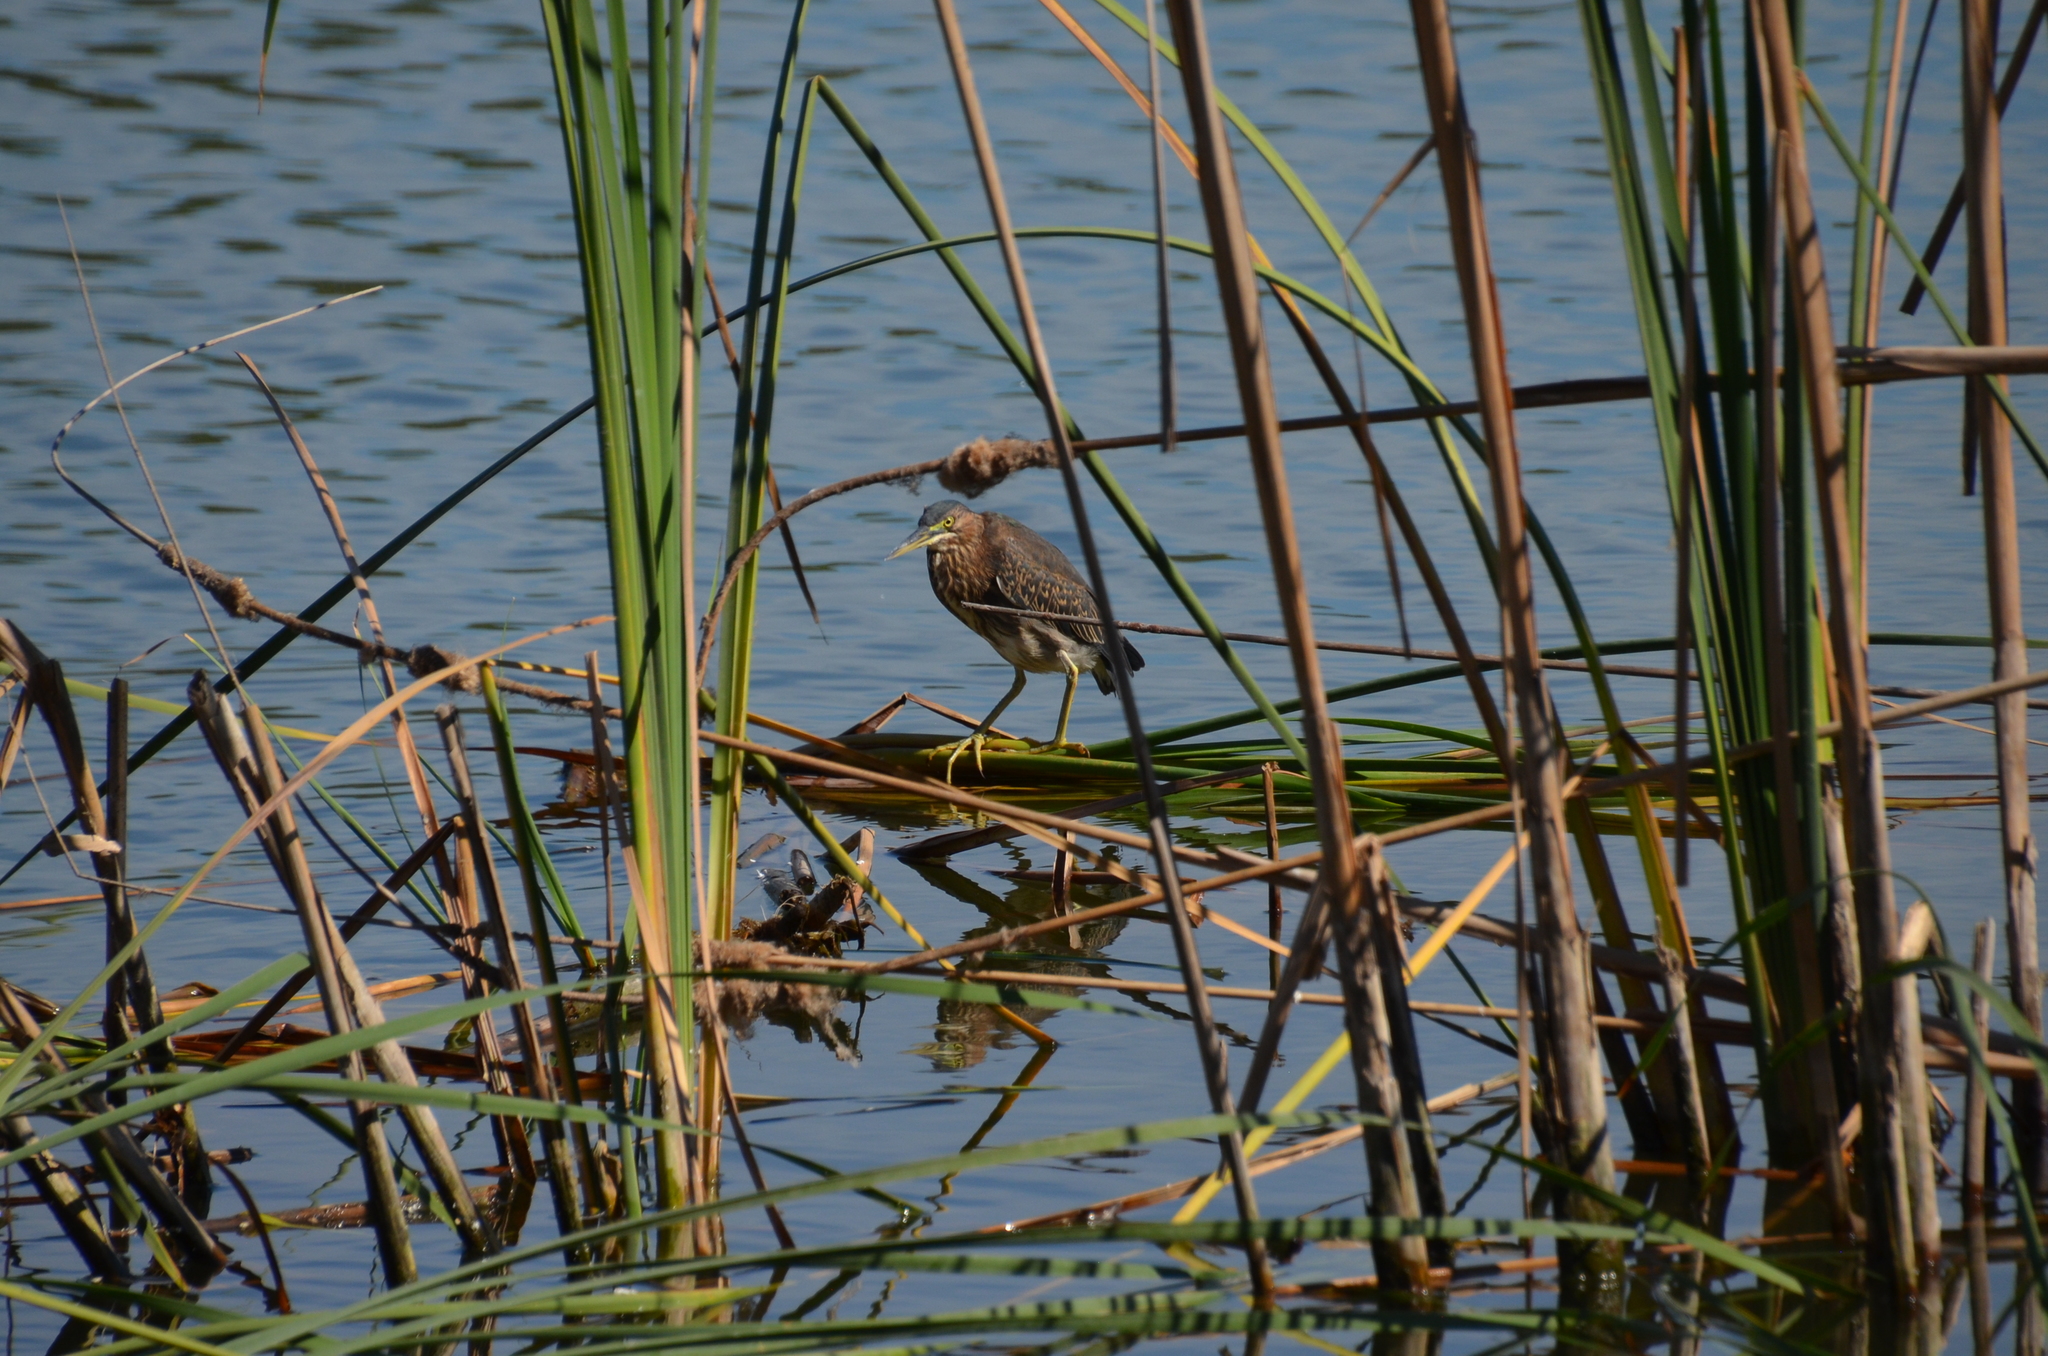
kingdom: Animalia
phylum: Chordata
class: Aves
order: Pelecaniformes
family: Ardeidae
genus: Butorides
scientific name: Butorides virescens
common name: Green heron
